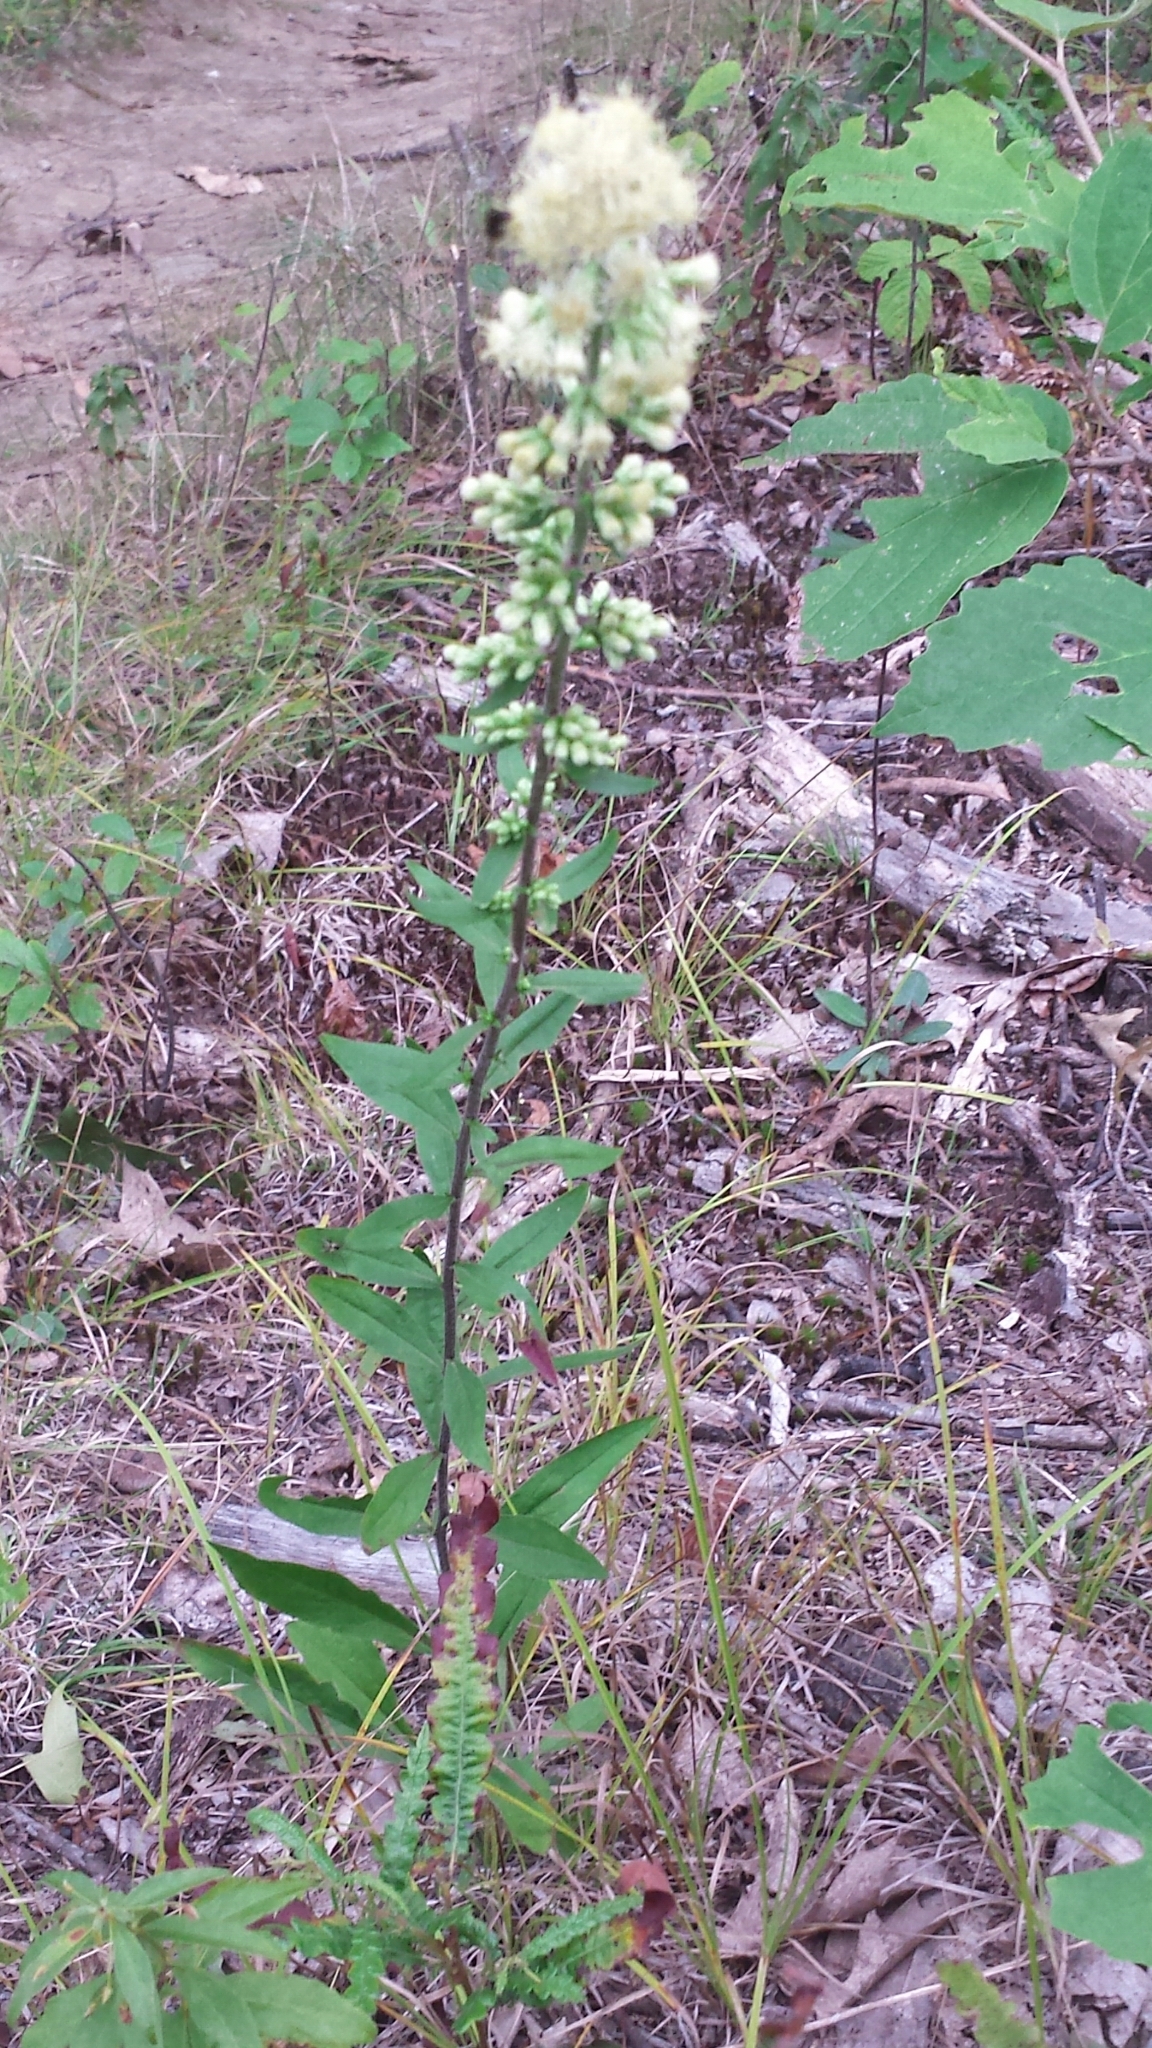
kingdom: Plantae
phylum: Tracheophyta
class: Magnoliopsida
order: Asterales
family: Asteraceae
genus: Solidago
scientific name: Solidago bicolor
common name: Silverrod
